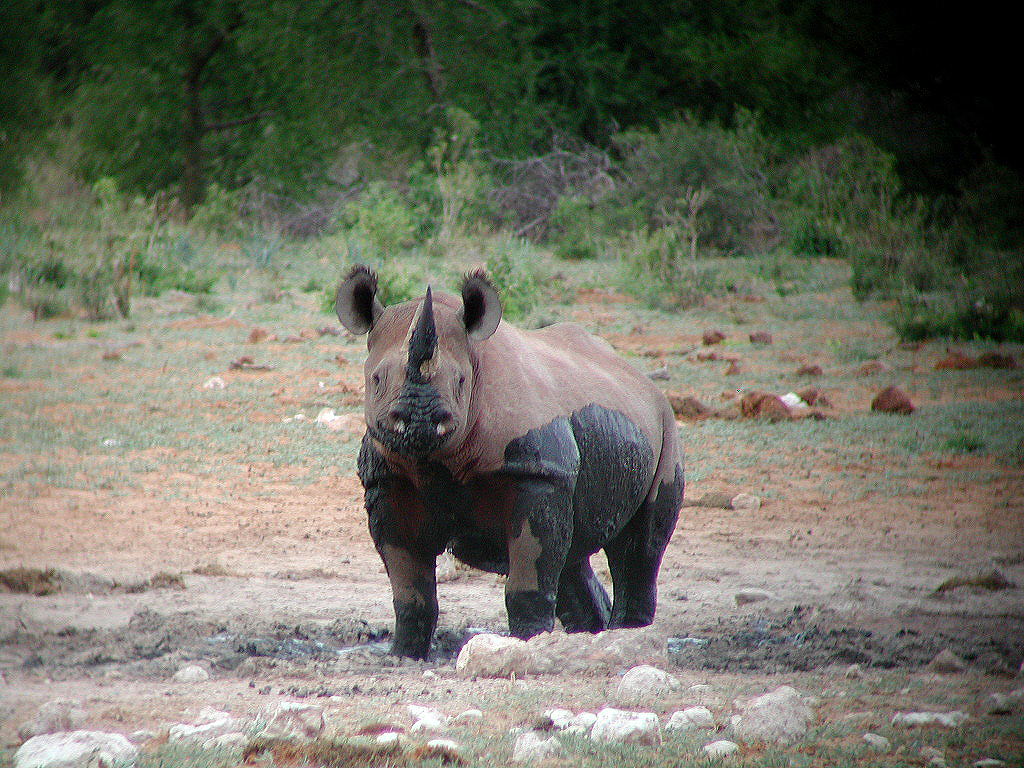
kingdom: Animalia
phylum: Chordata
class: Mammalia
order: Perissodactyla
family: Rhinocerotidae
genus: Diceros
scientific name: Diceros bicornis
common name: Black rhinoceros
